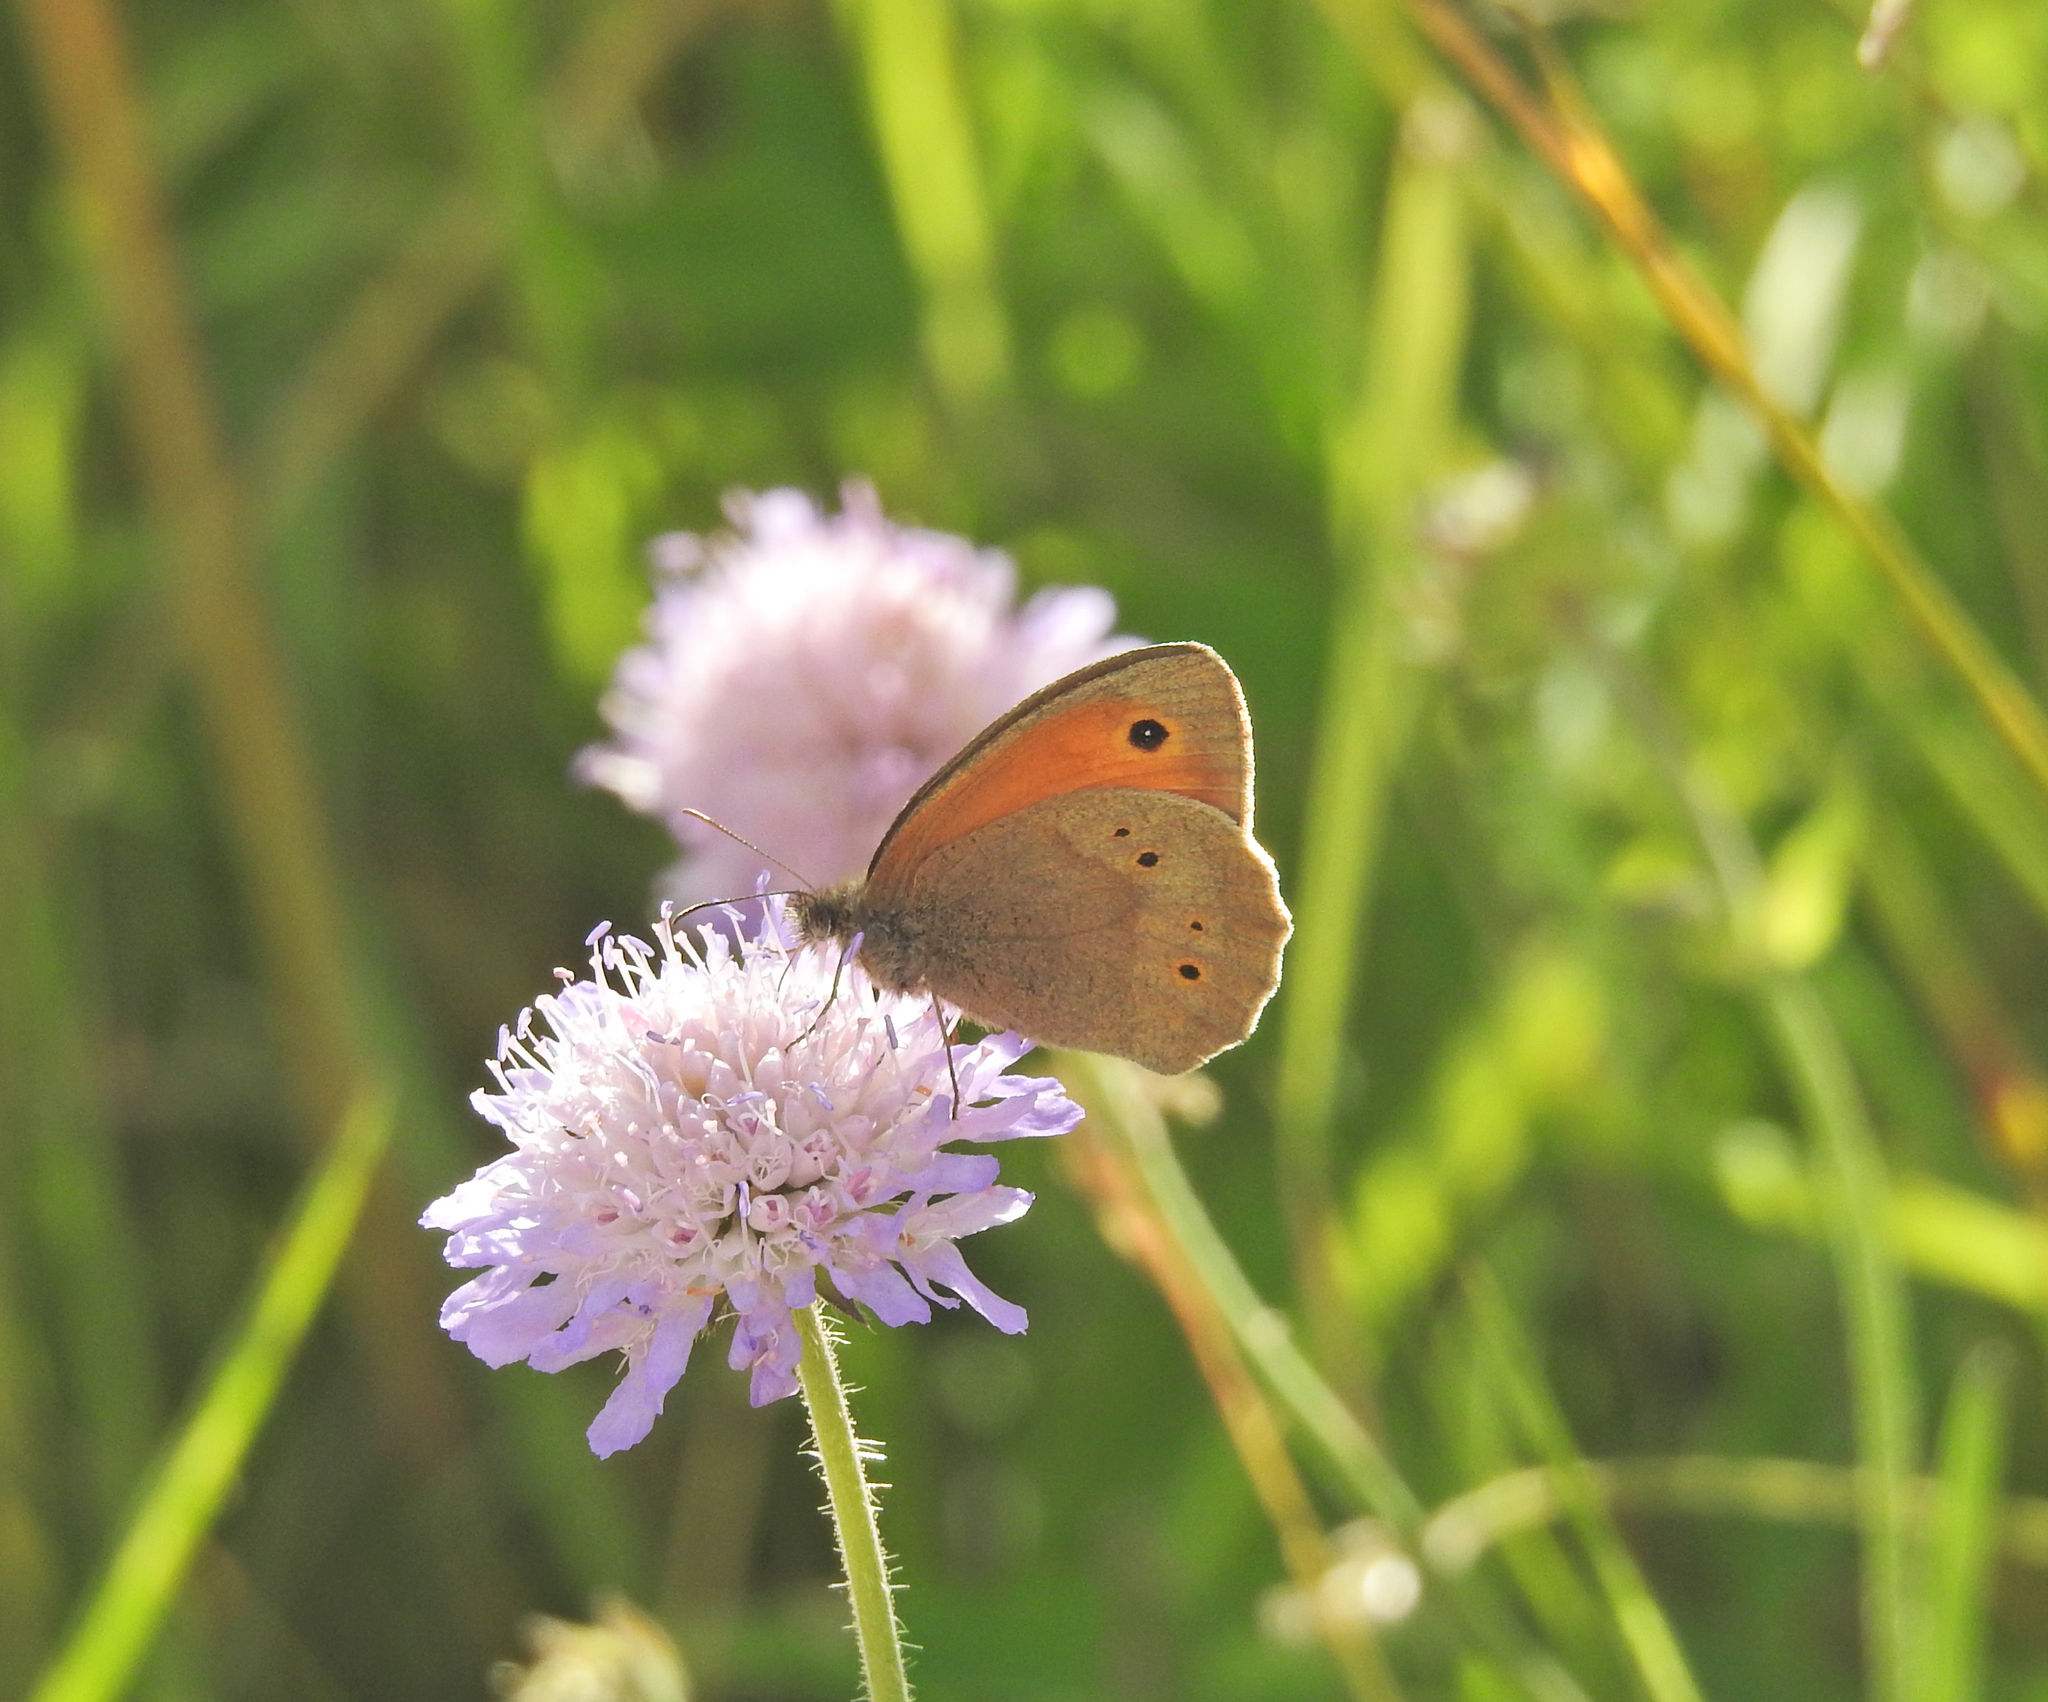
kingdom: Animalia
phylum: Arthropoda
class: Insecta
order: Lepidoptera
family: Nymphalidae
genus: Maniola
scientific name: Maniola jurtina
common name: Meadow brown
